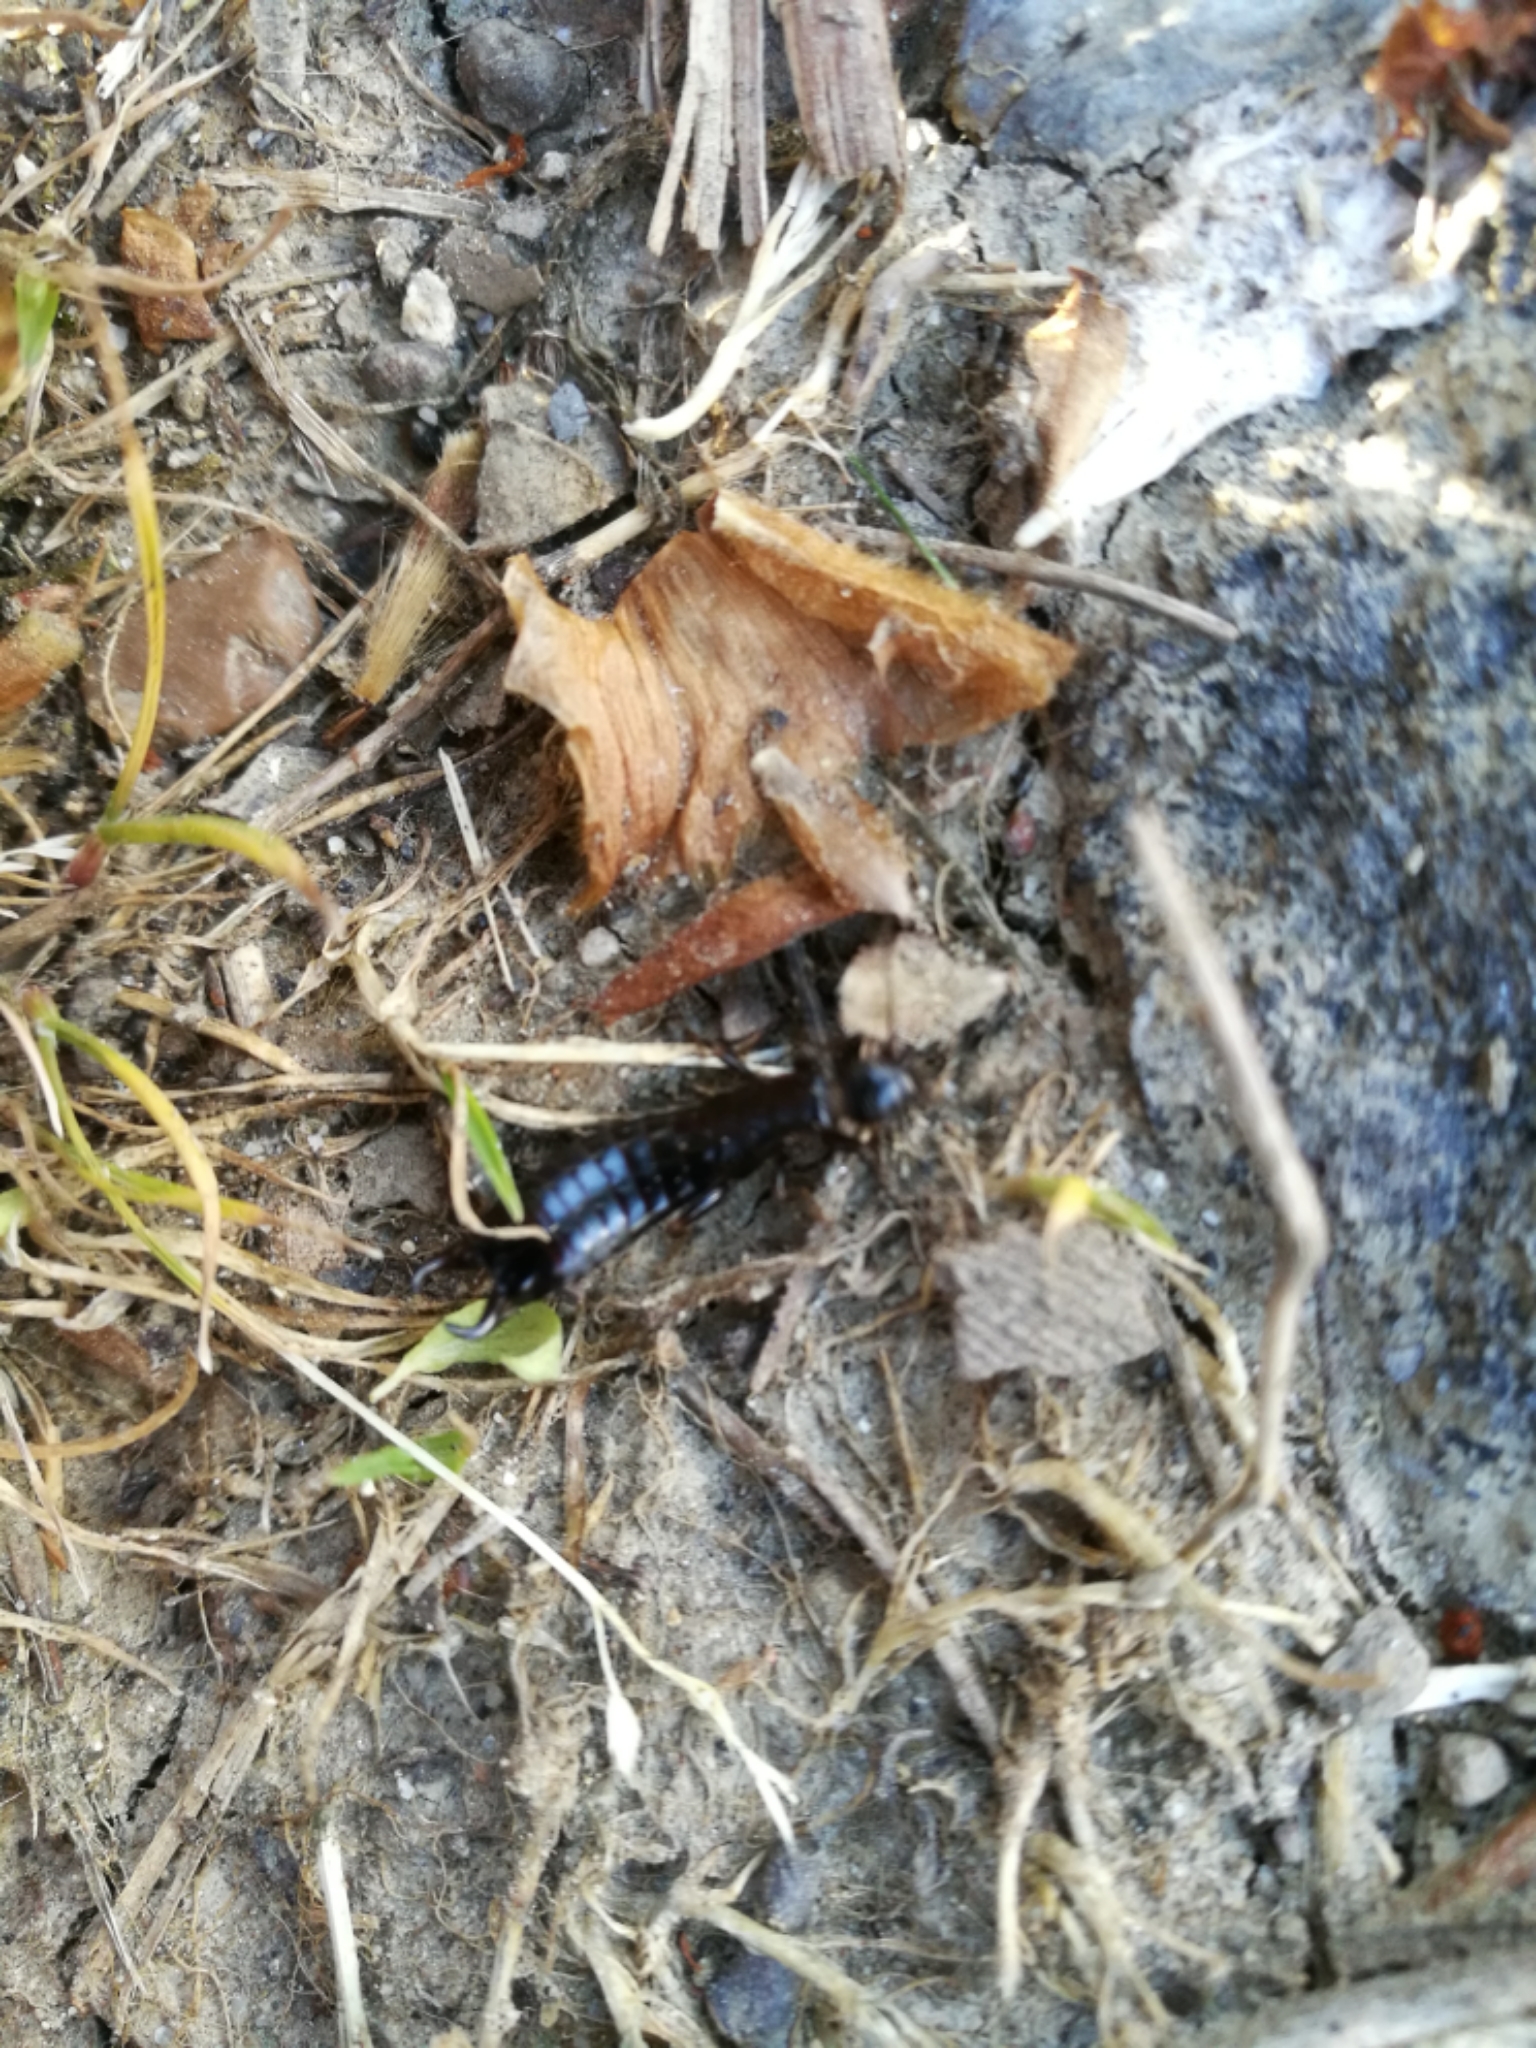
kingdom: Animalia
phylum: Arthropoda
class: Insecta
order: Dermaptera
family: Anisolabididae
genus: Euborellia
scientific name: Euborellia moesta
